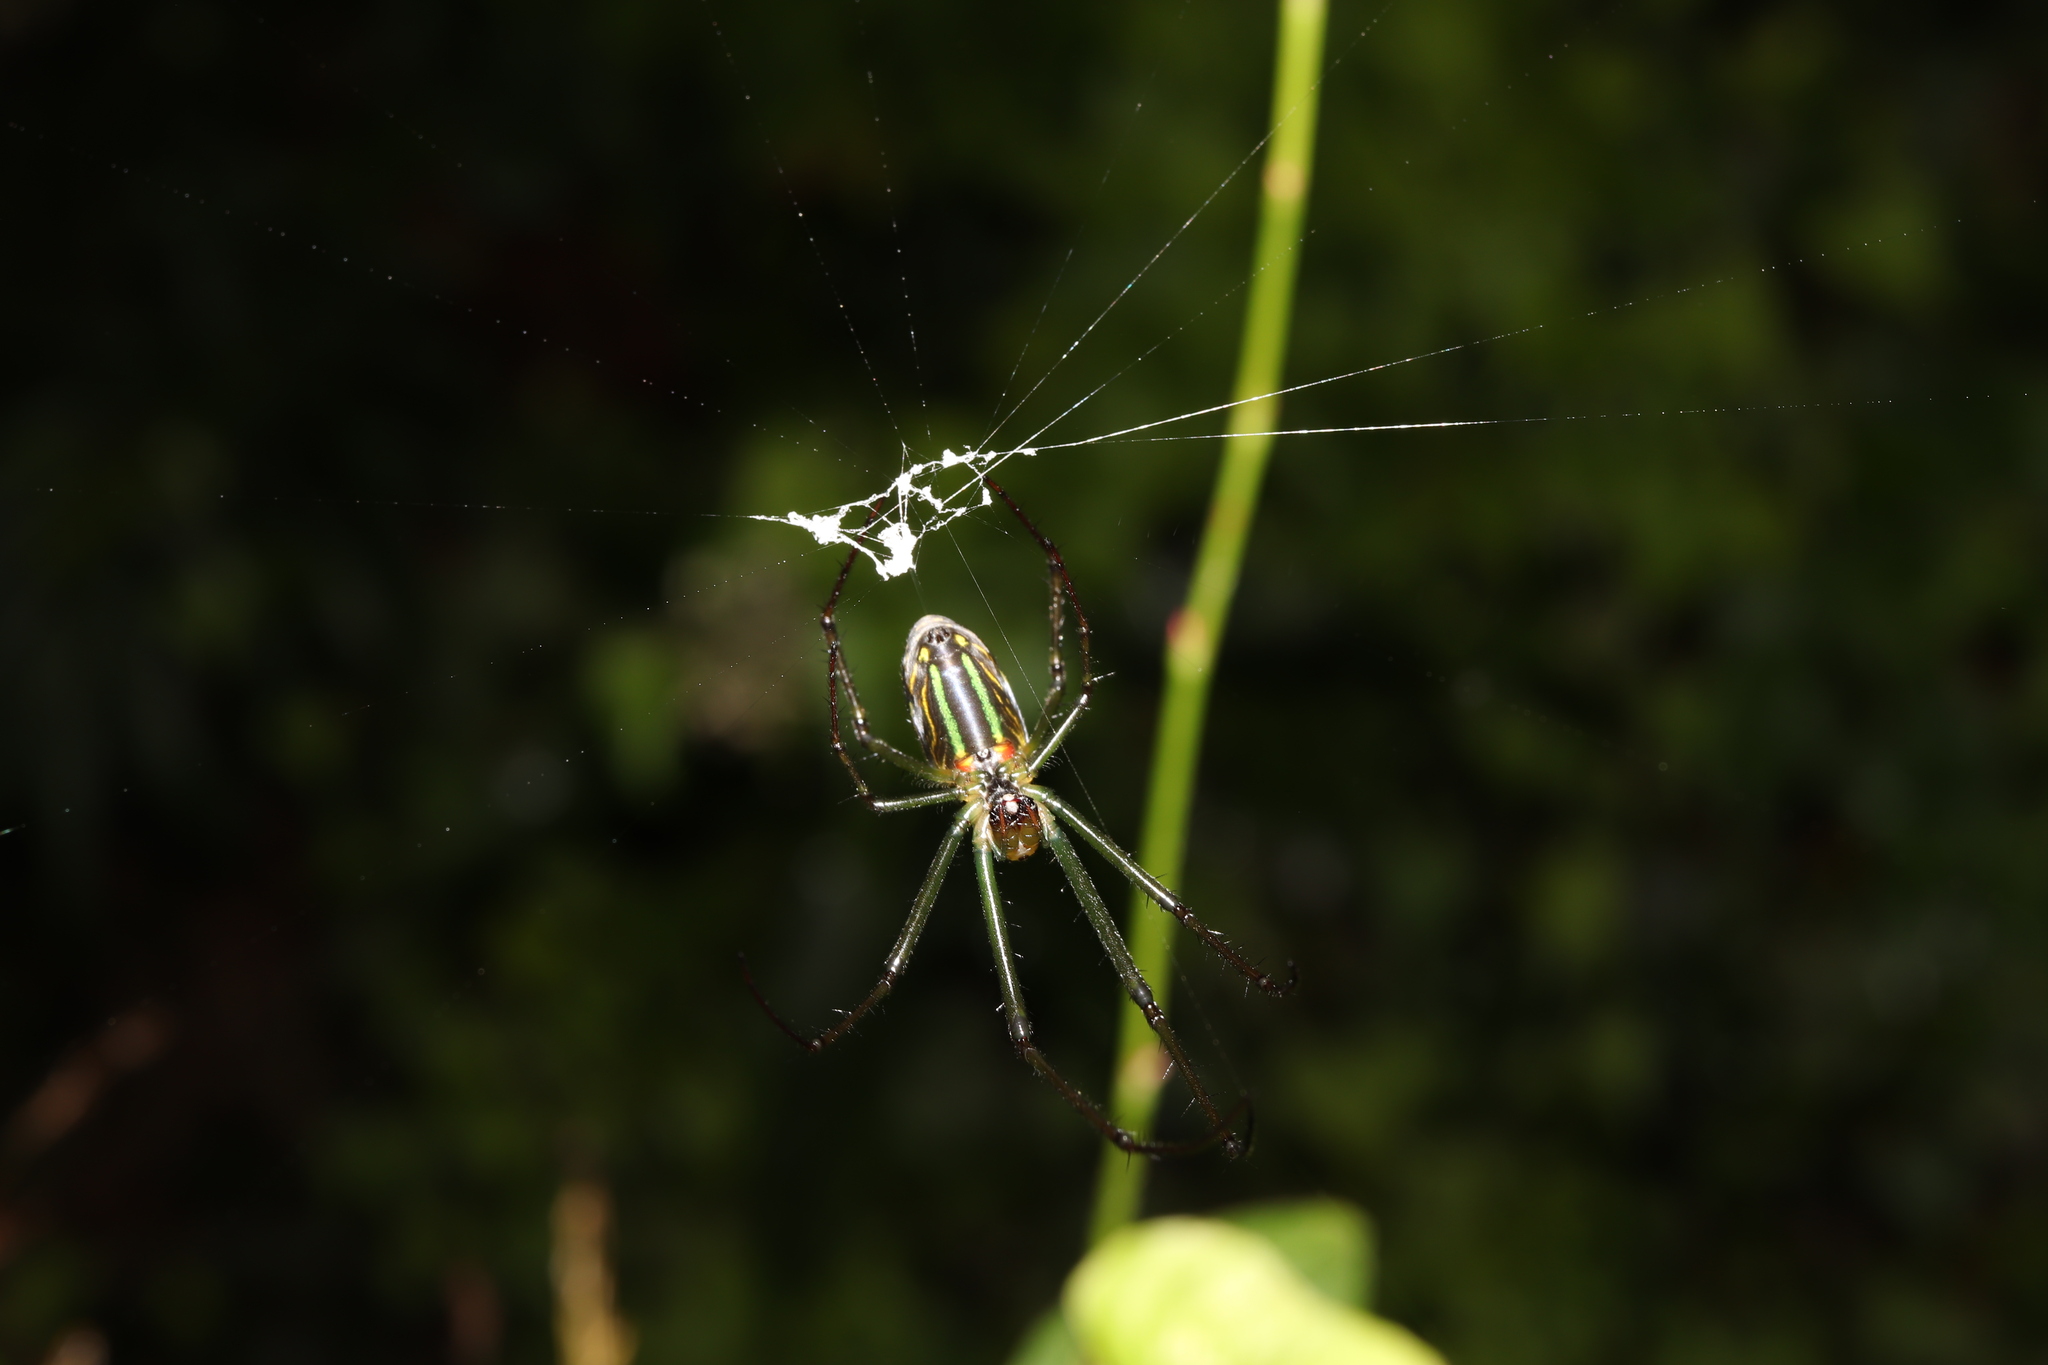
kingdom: Animalia
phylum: Arthropoda
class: Arachnida
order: Araneae
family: Tetragnathidae
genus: Leucauge
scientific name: Leucauge celebesiana
